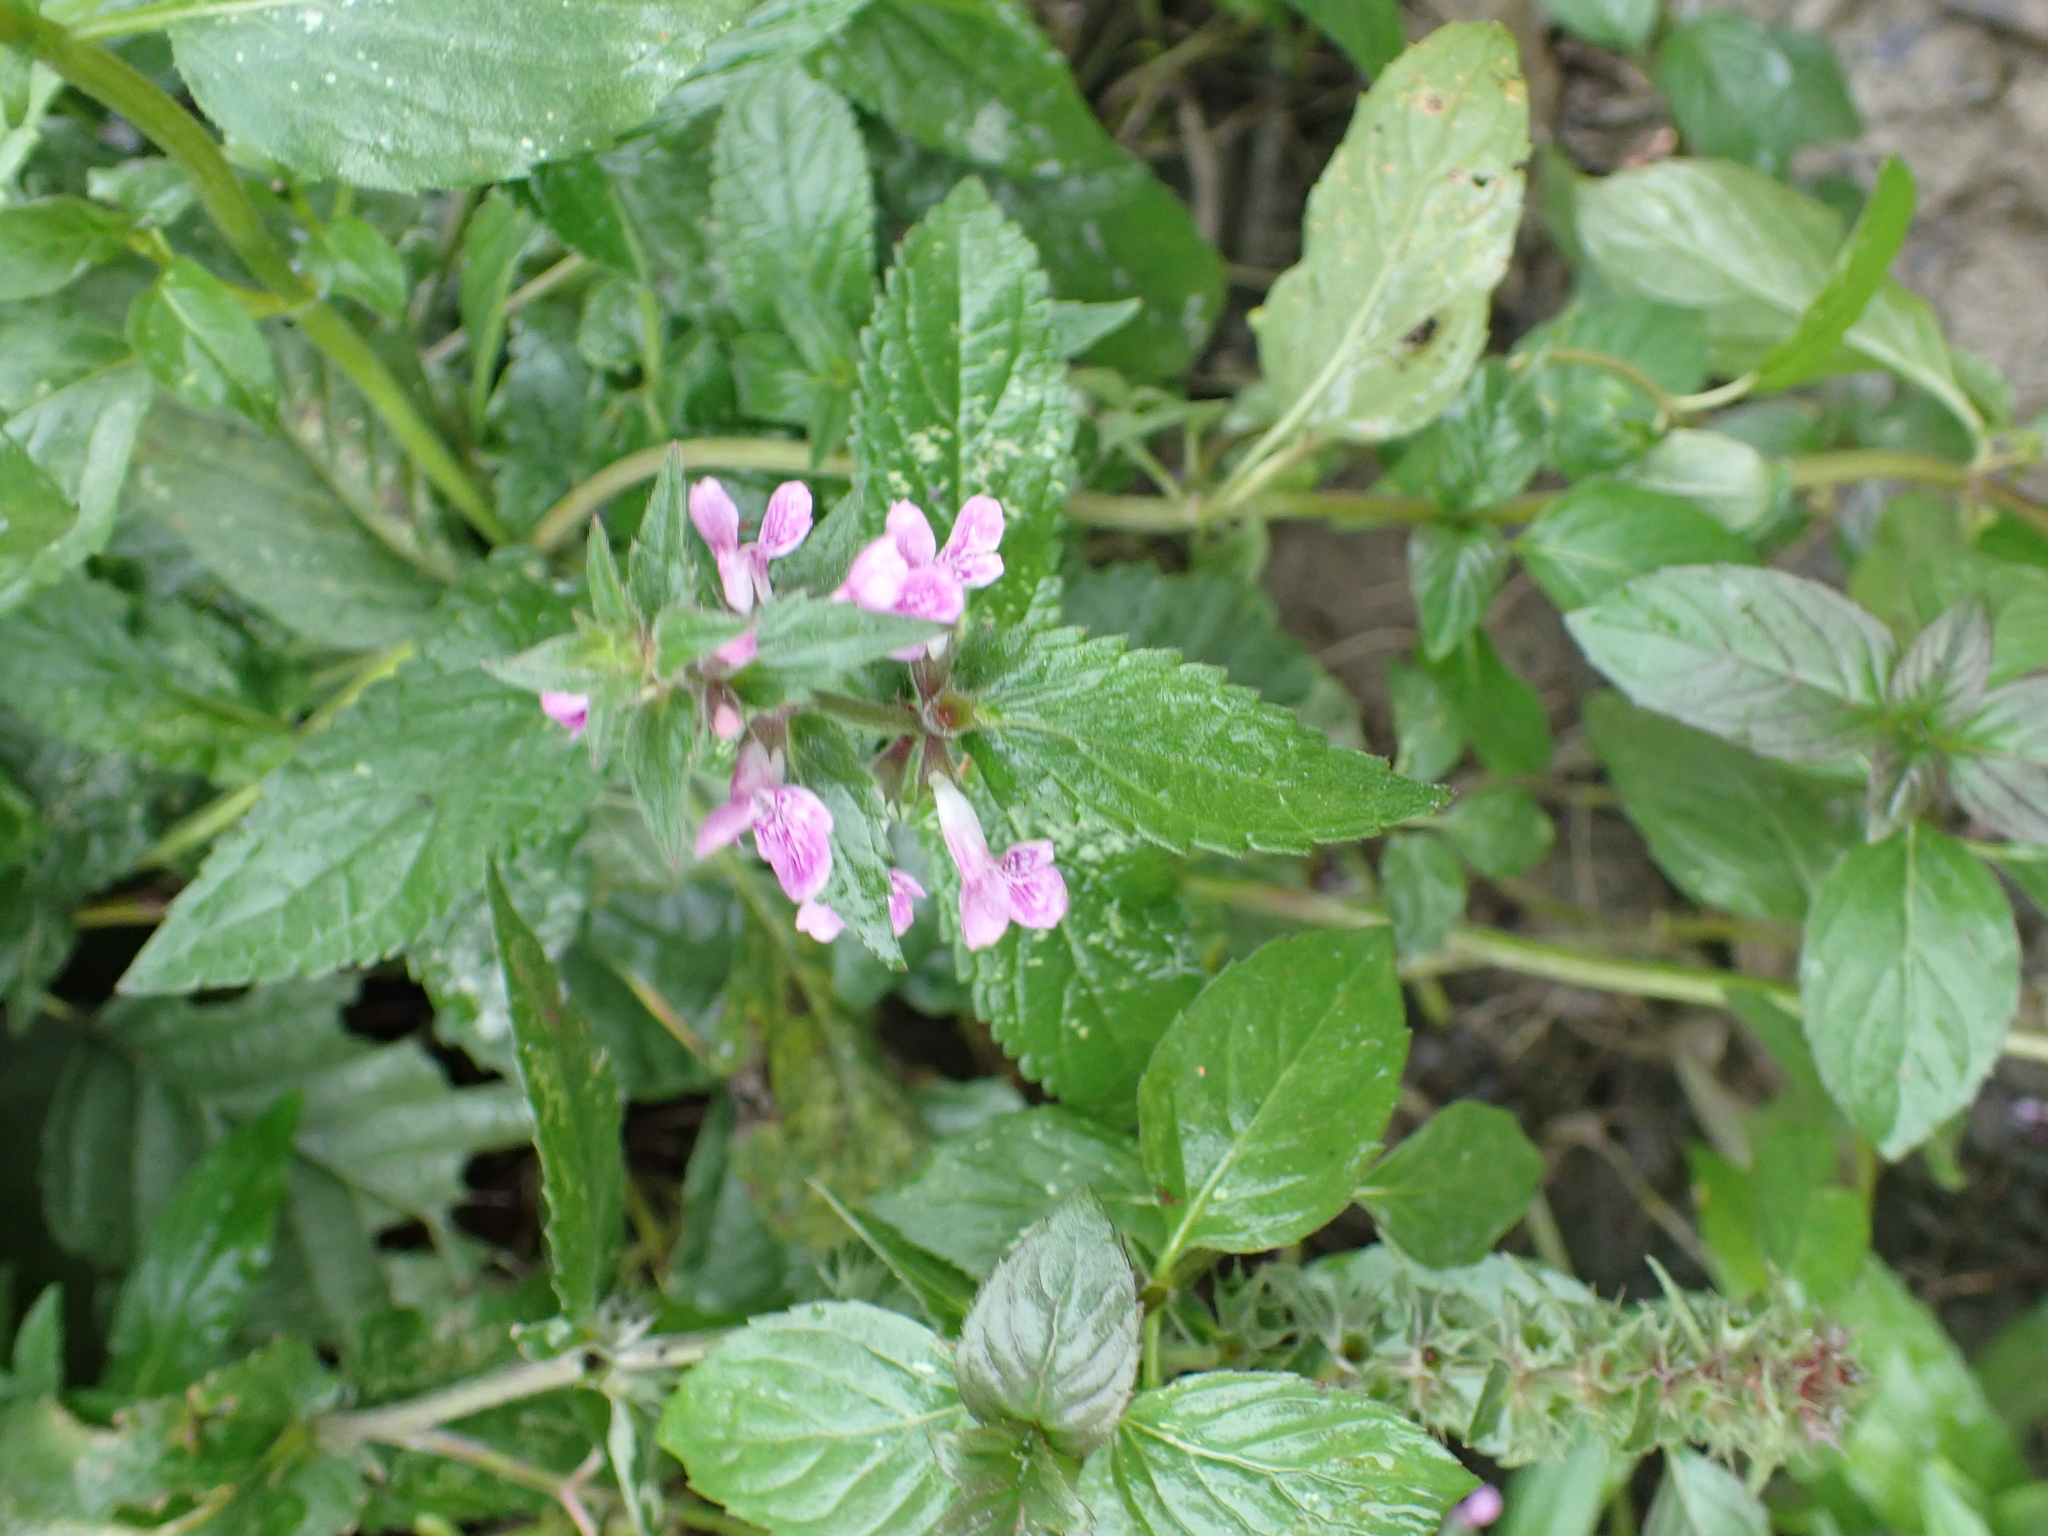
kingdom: Plantae
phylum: Tracheophyta
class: Magnoliopsida
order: Lamiales
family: Lamiaceae
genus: Stachys
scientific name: Stachys palustris
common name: Marsh woundwort
